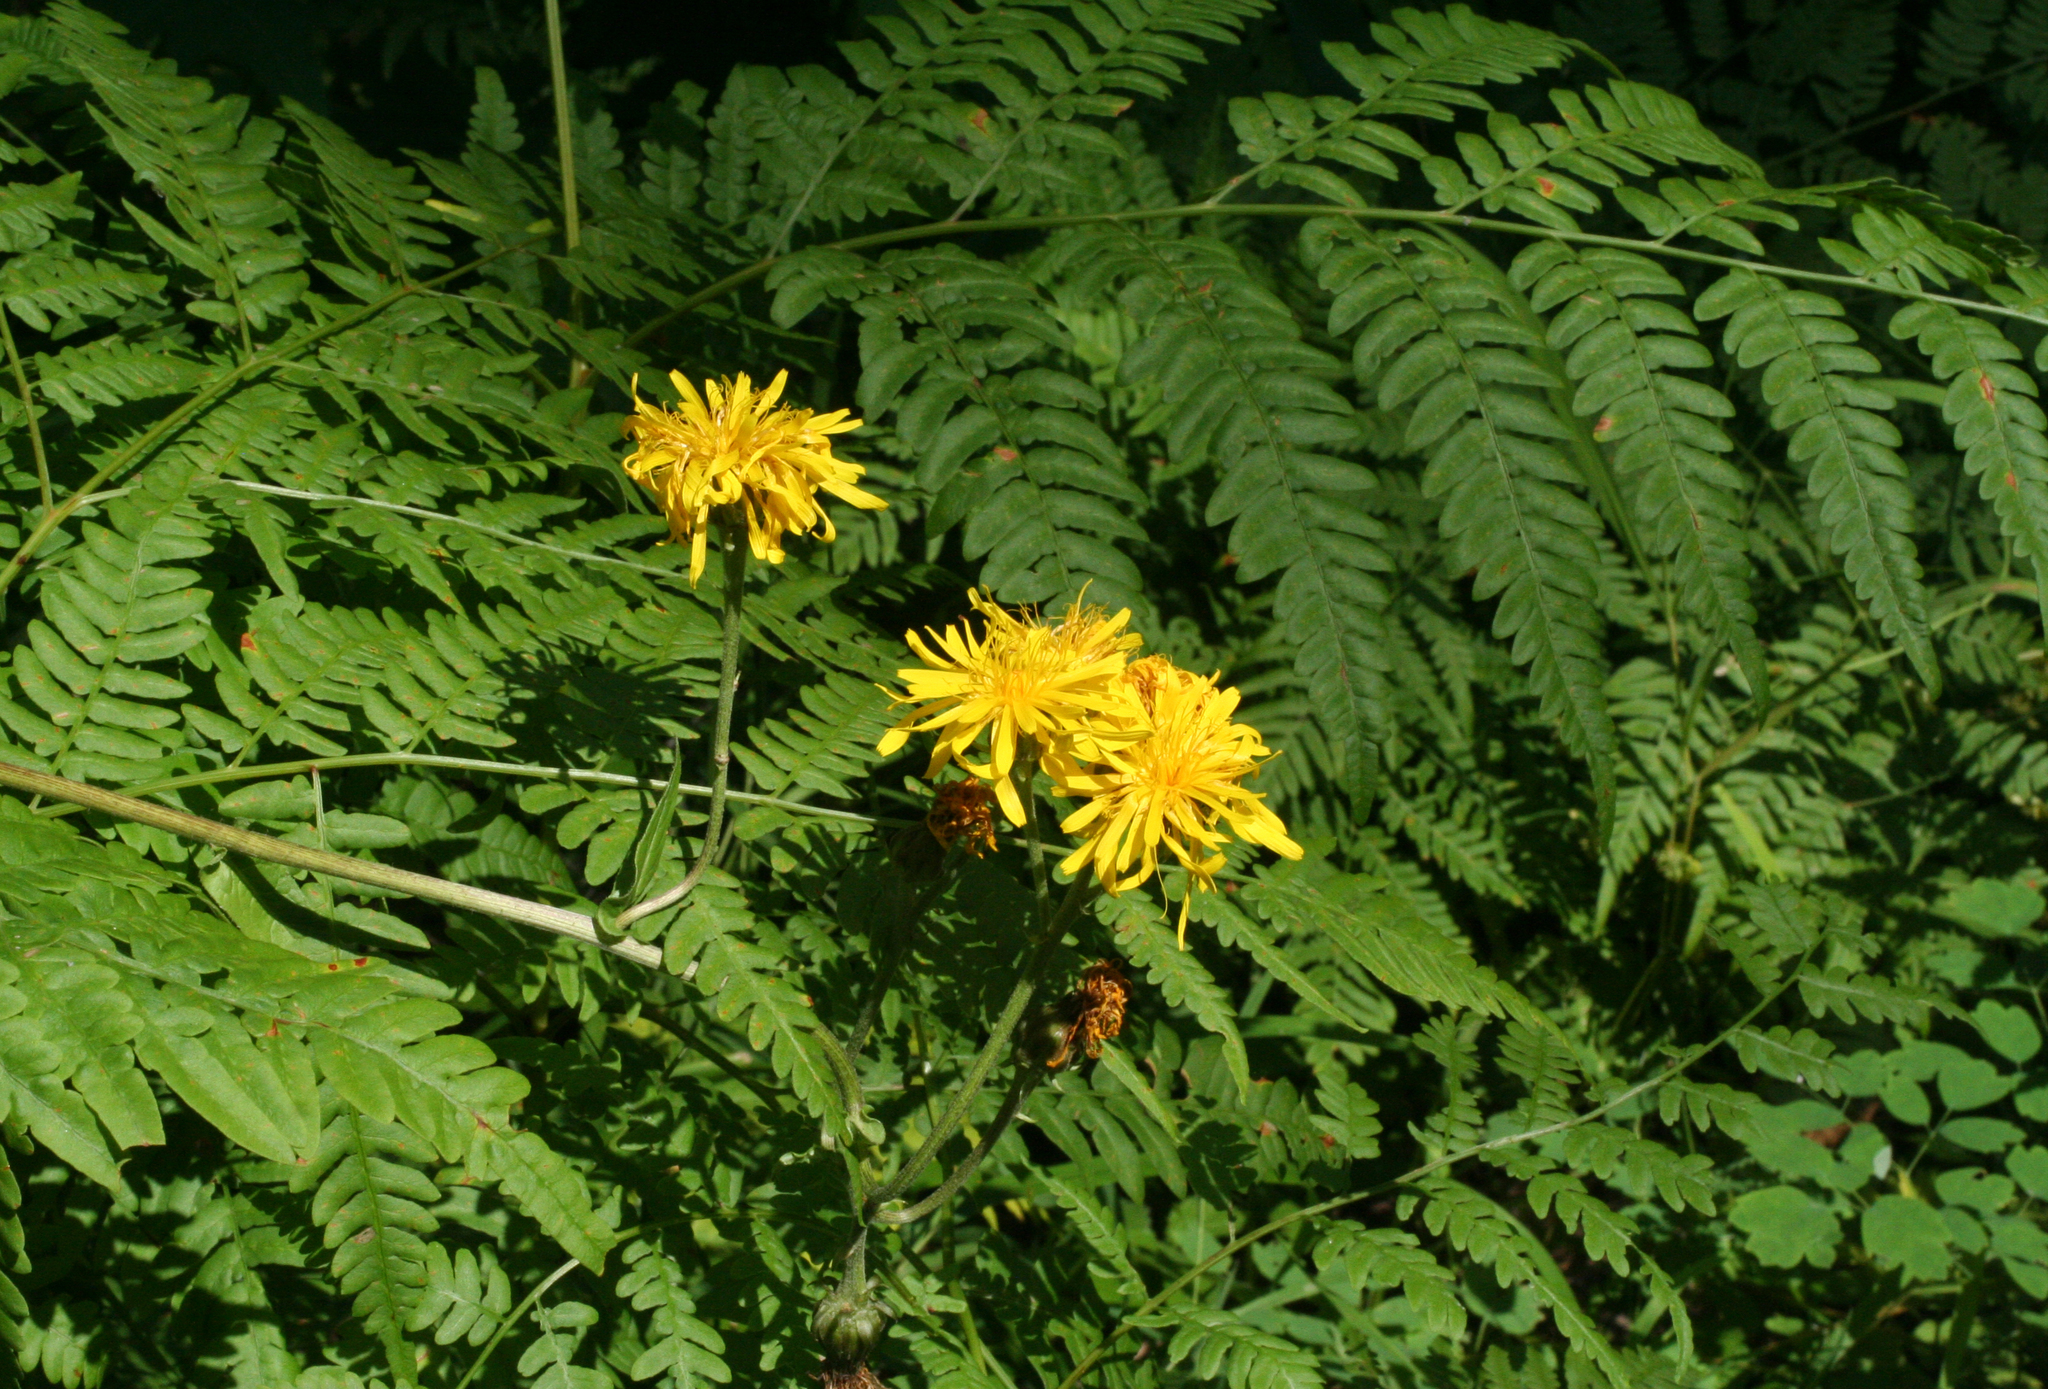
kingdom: Plantae
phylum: Tracheophyta
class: Magnoliopsida
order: Asterales
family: Asteraceae
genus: Crepis
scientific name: Crepis sibirica
